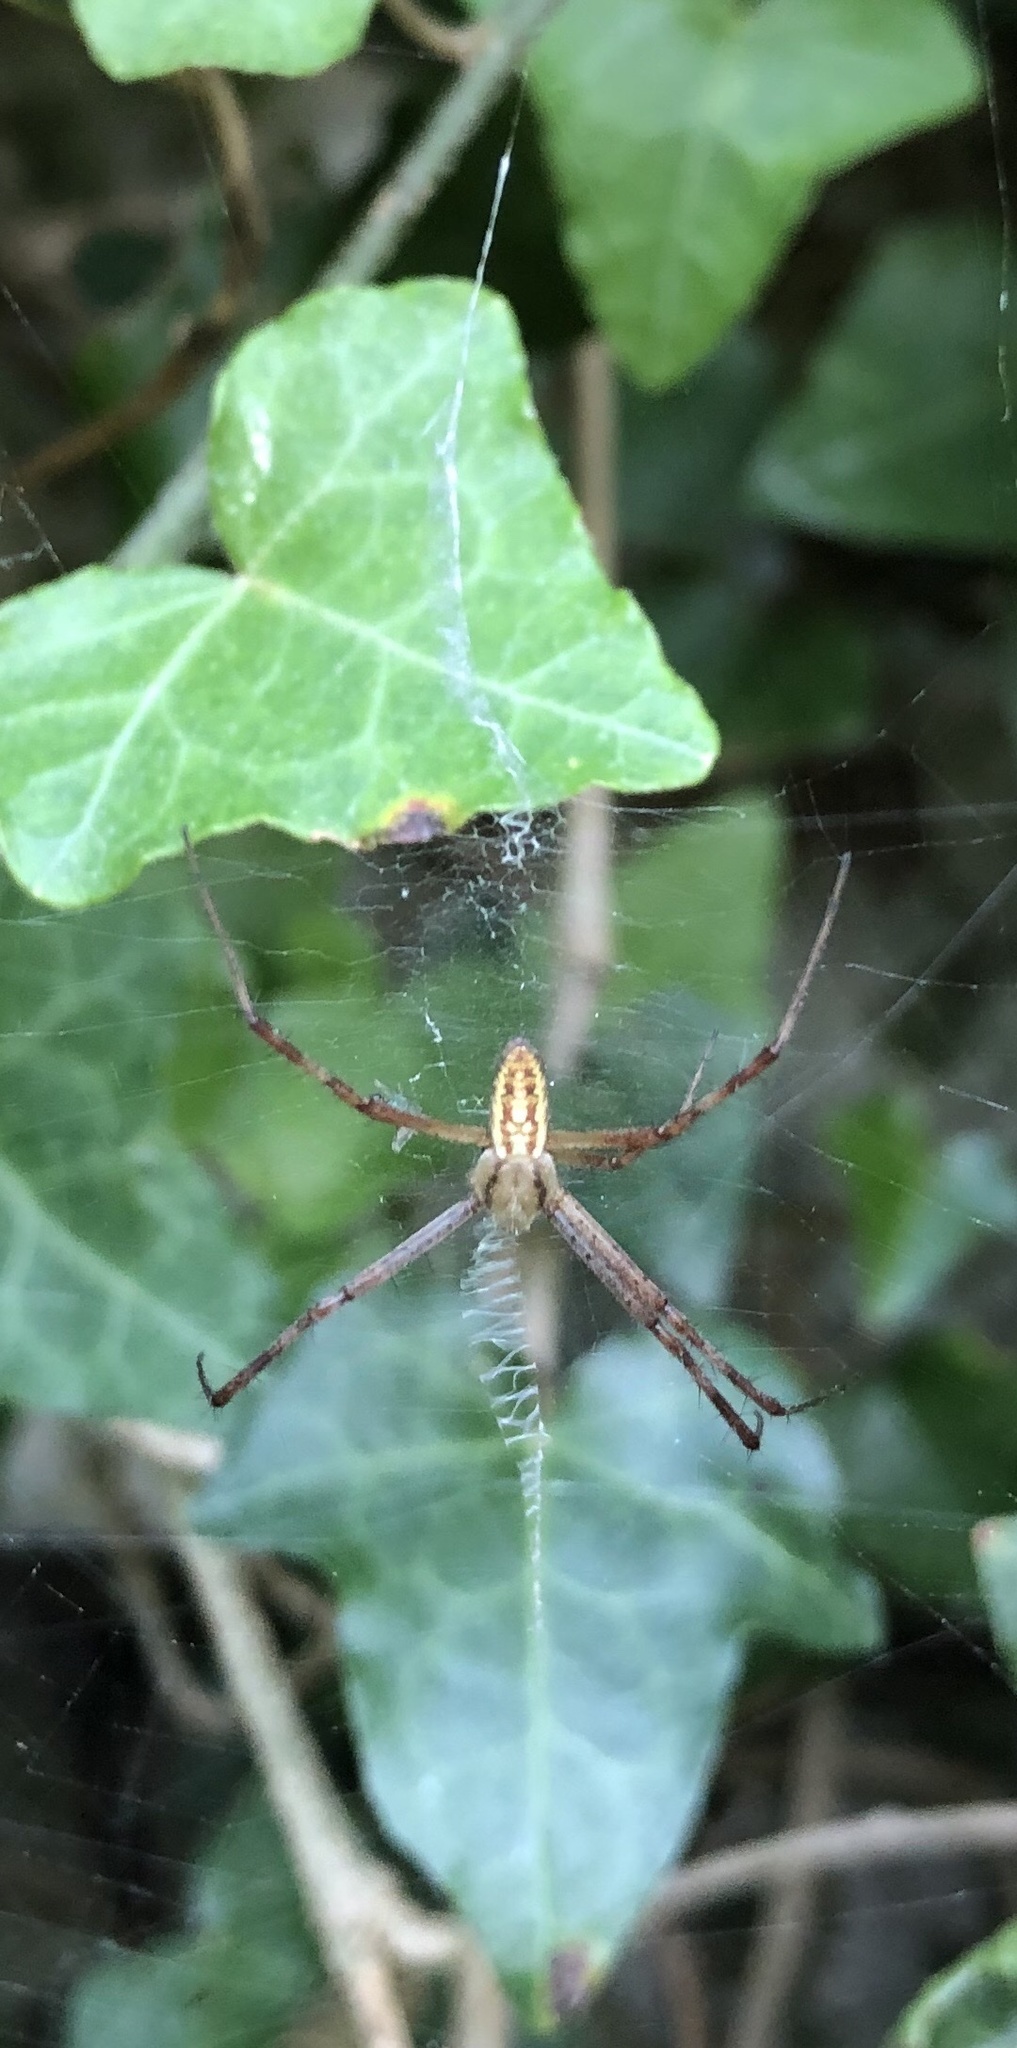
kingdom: Animalia
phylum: Arthropoda
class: Arachnida
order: Araneae
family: Araneidae
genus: Argiope
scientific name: Argiope bruennichi
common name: Wasp spider
